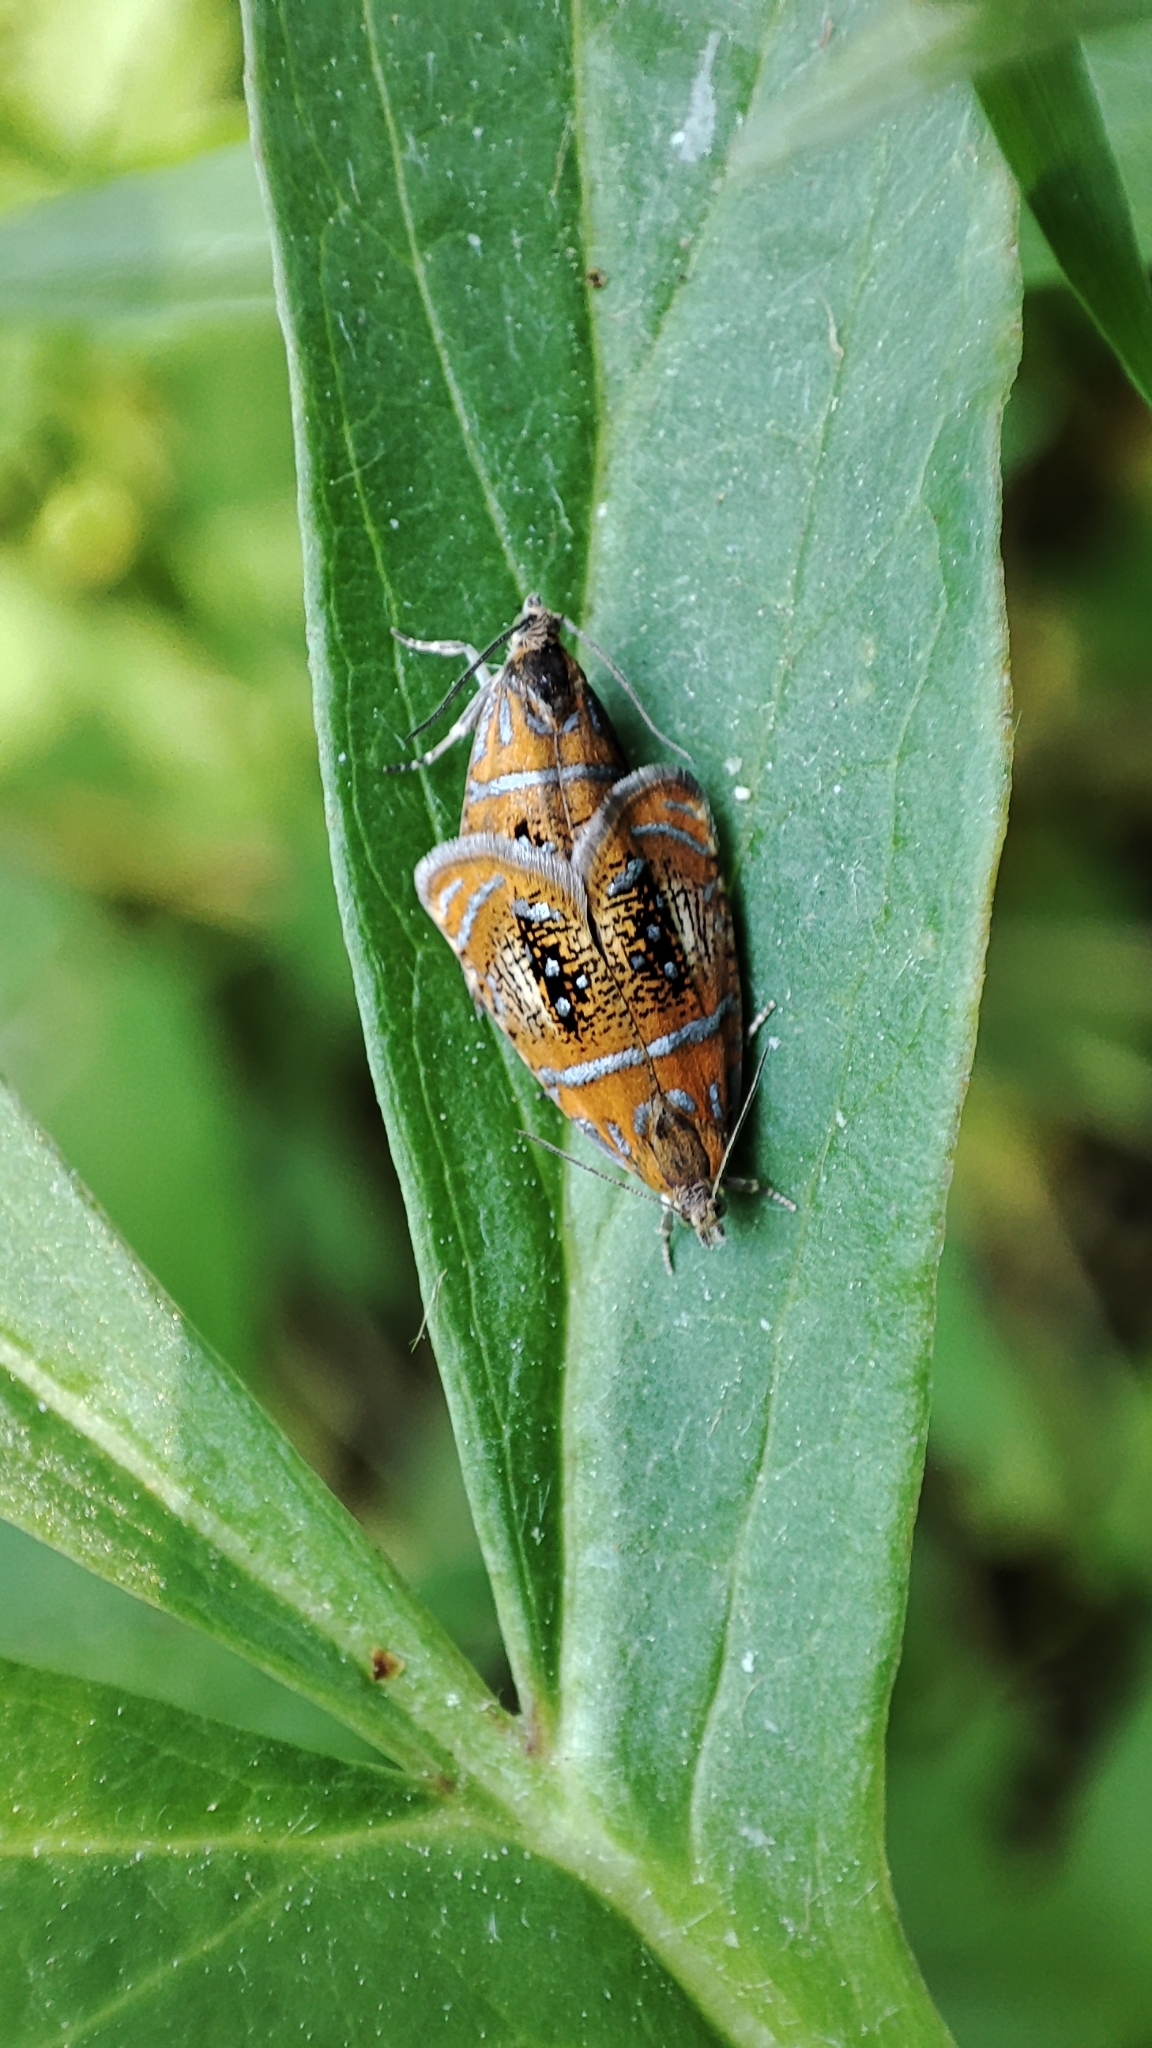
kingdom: Animalia
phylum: Arthropoda
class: Insecta
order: Lepidoptera
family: Tortricidae
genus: Olethreutes
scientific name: Olethreutes arcuella
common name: Arched marble
